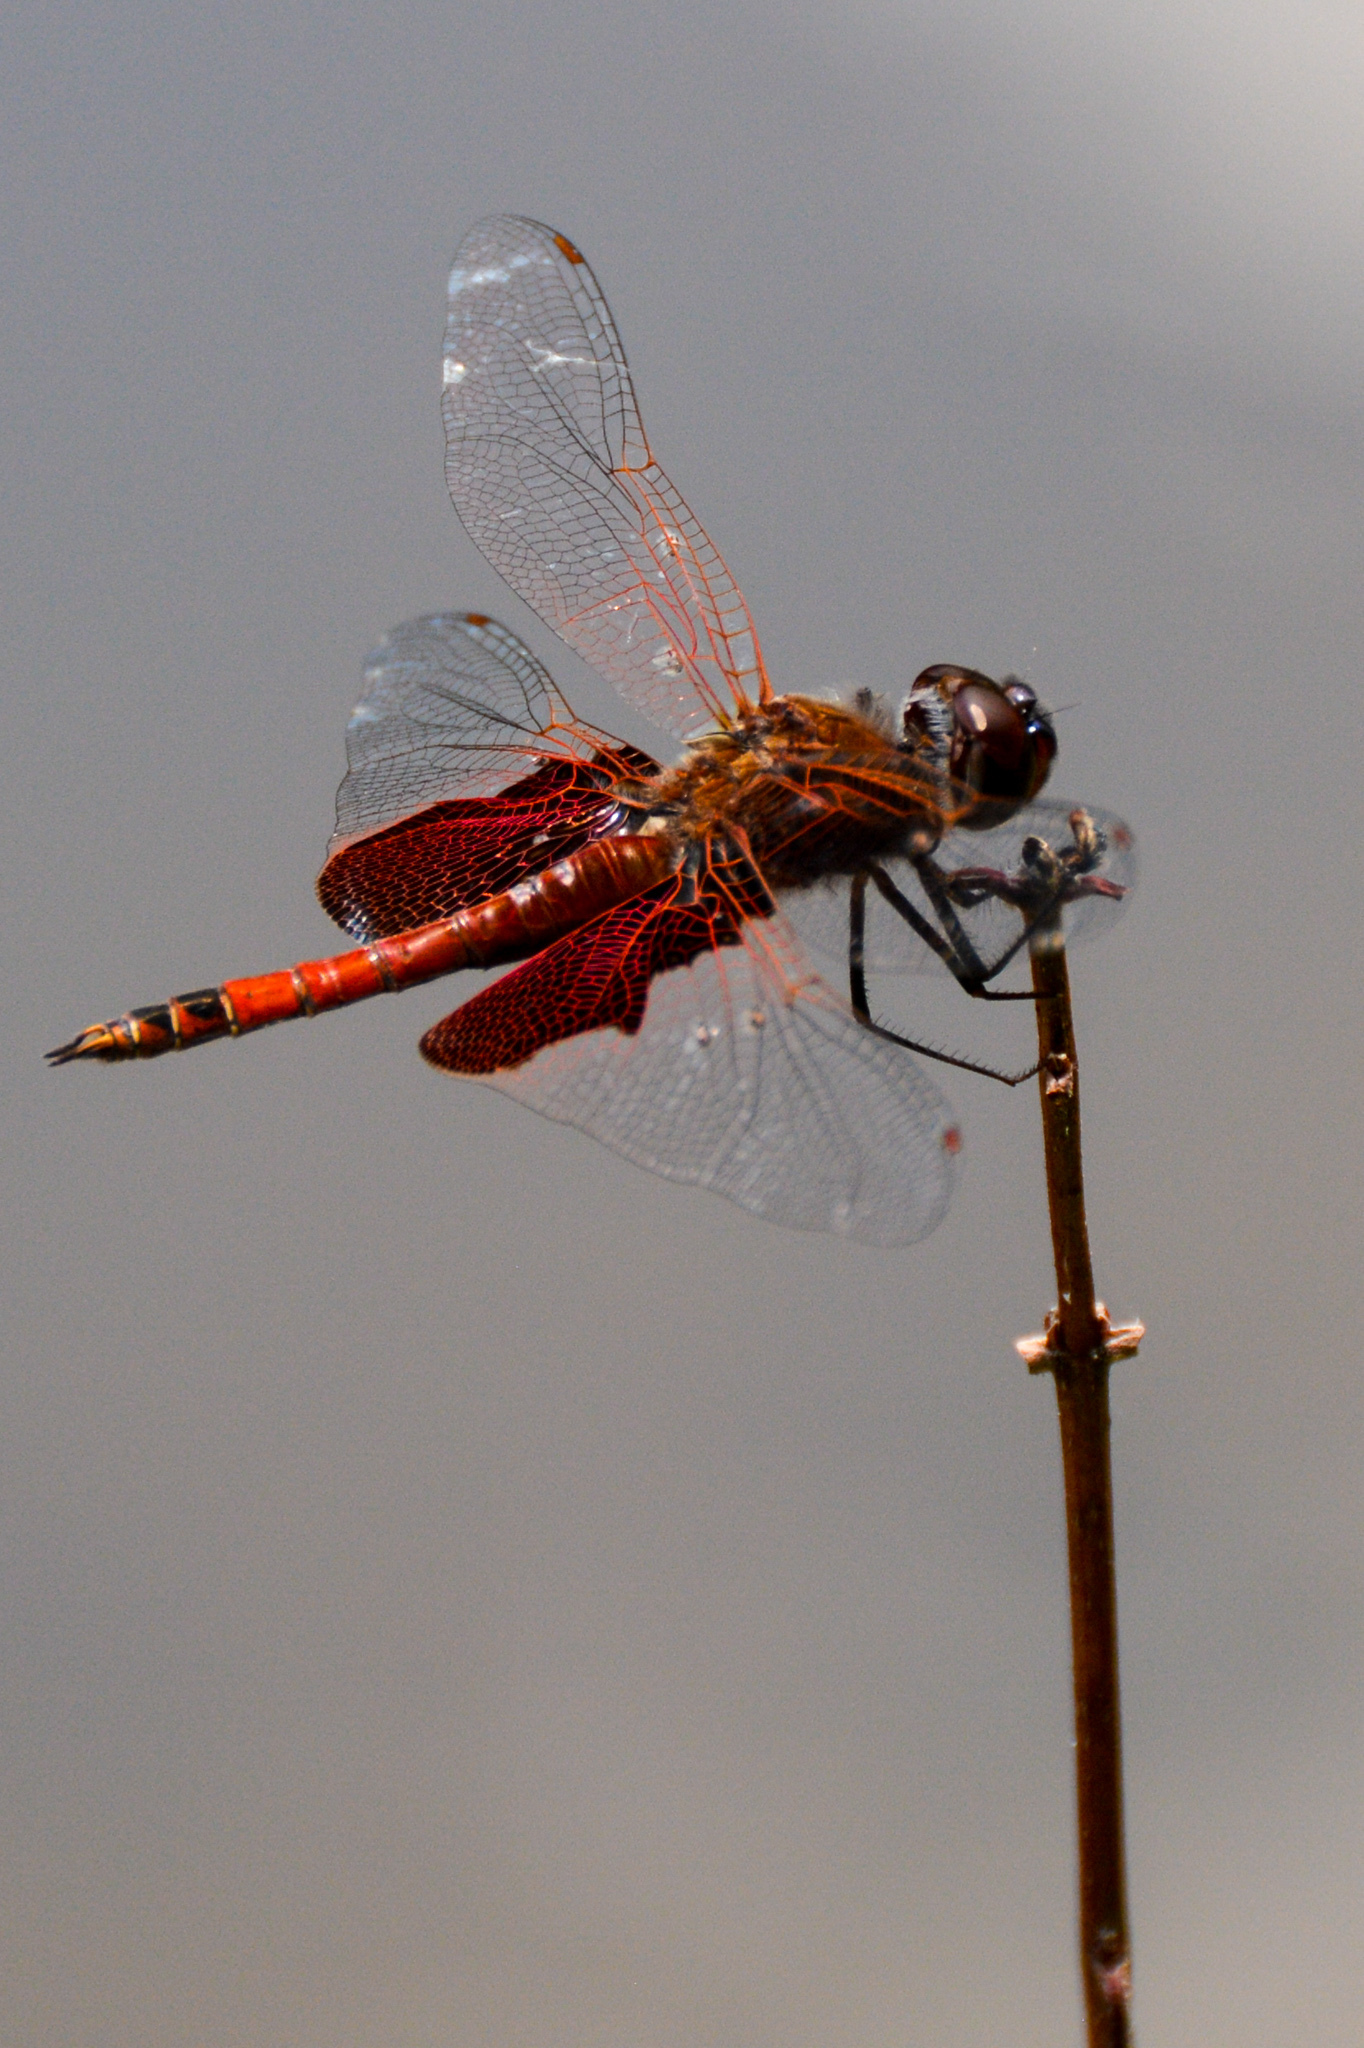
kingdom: Animalia
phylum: Arthropoda
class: Insecta
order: Odonata
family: Libellulidae
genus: Tramea
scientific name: Tramea carolina
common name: Carolina saddlebags
